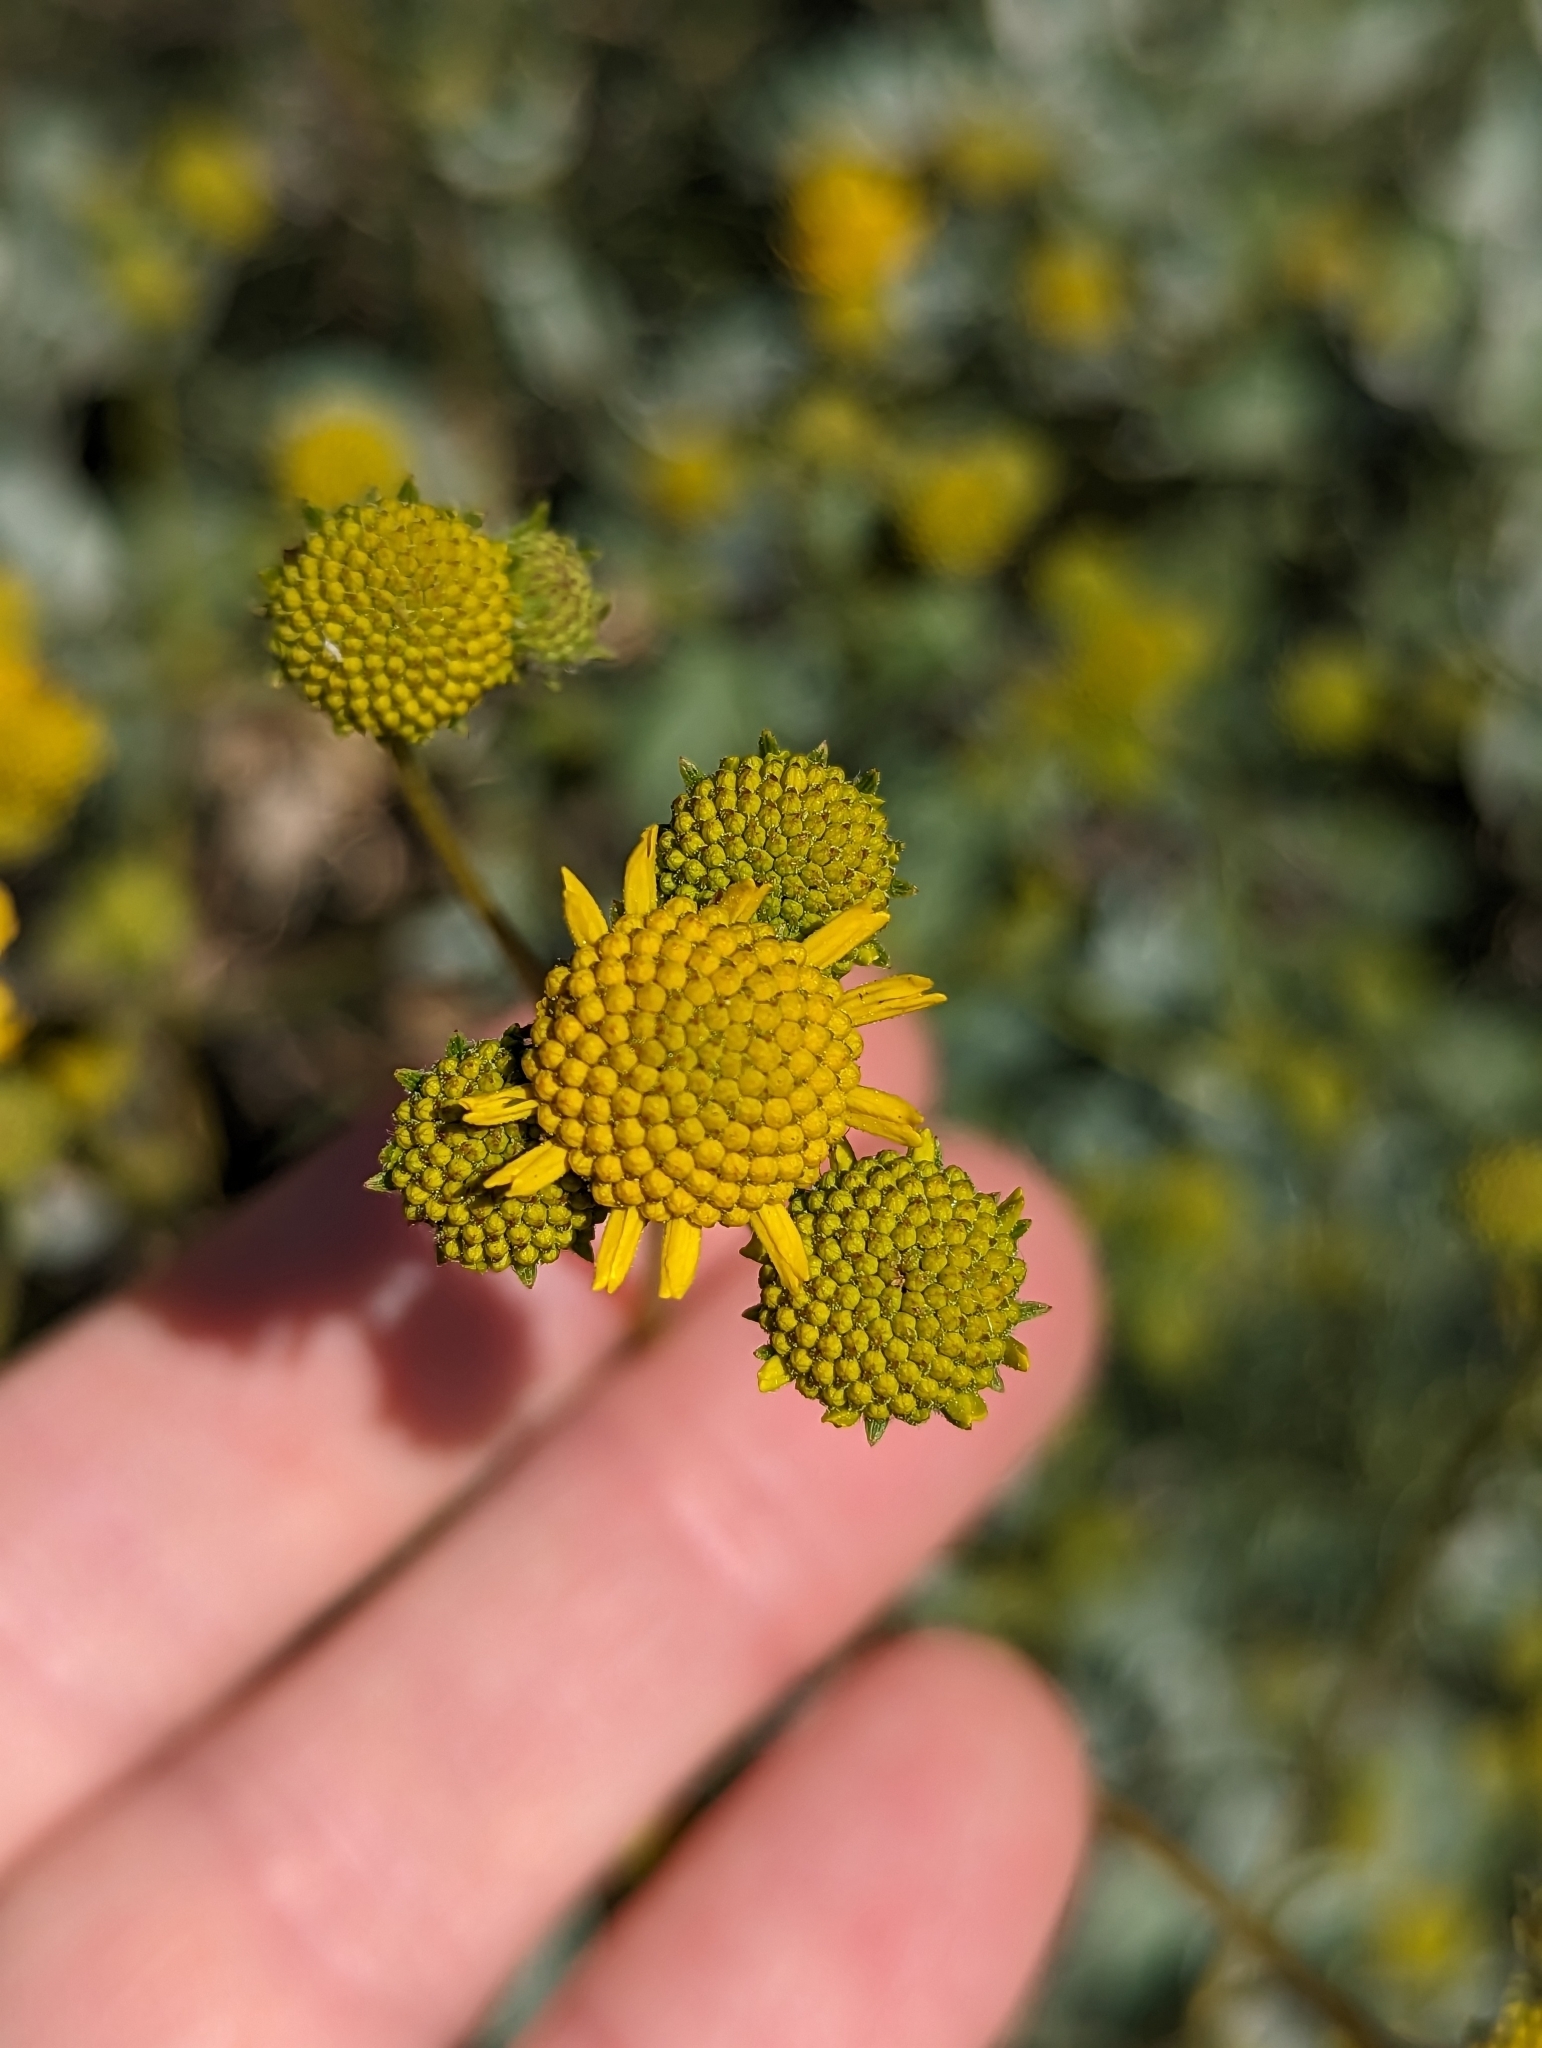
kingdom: Plantae
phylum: Tracheophyta
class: Magnoliopsida
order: Asterales
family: Asteraceae
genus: Encelia
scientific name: Encelia farinosa
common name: Brittlebush
